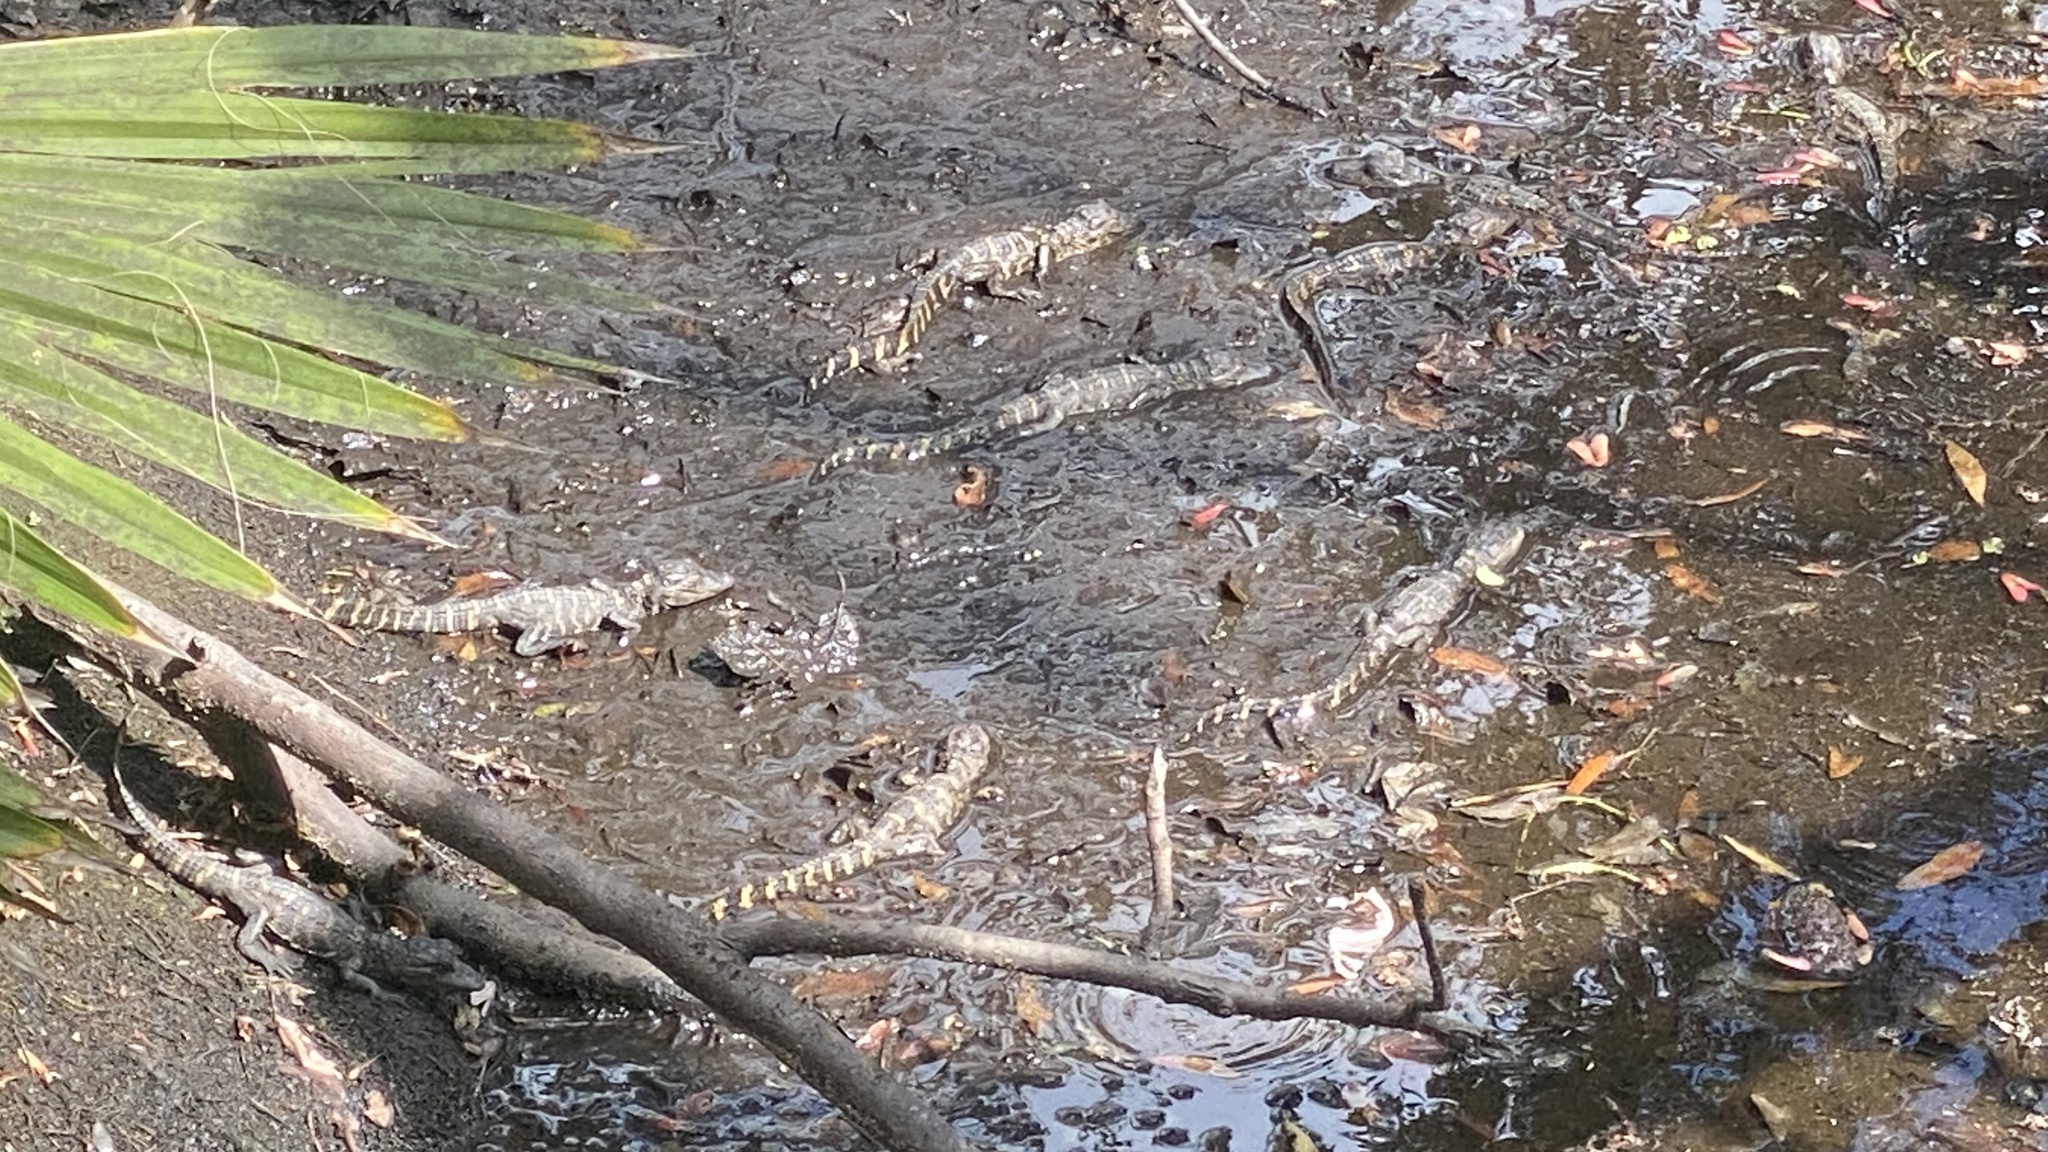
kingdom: Animalia
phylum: Chordata
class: Crocodylia
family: Alligatoridae
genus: Alligator
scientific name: Alligator mississippiensis
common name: American alligator
